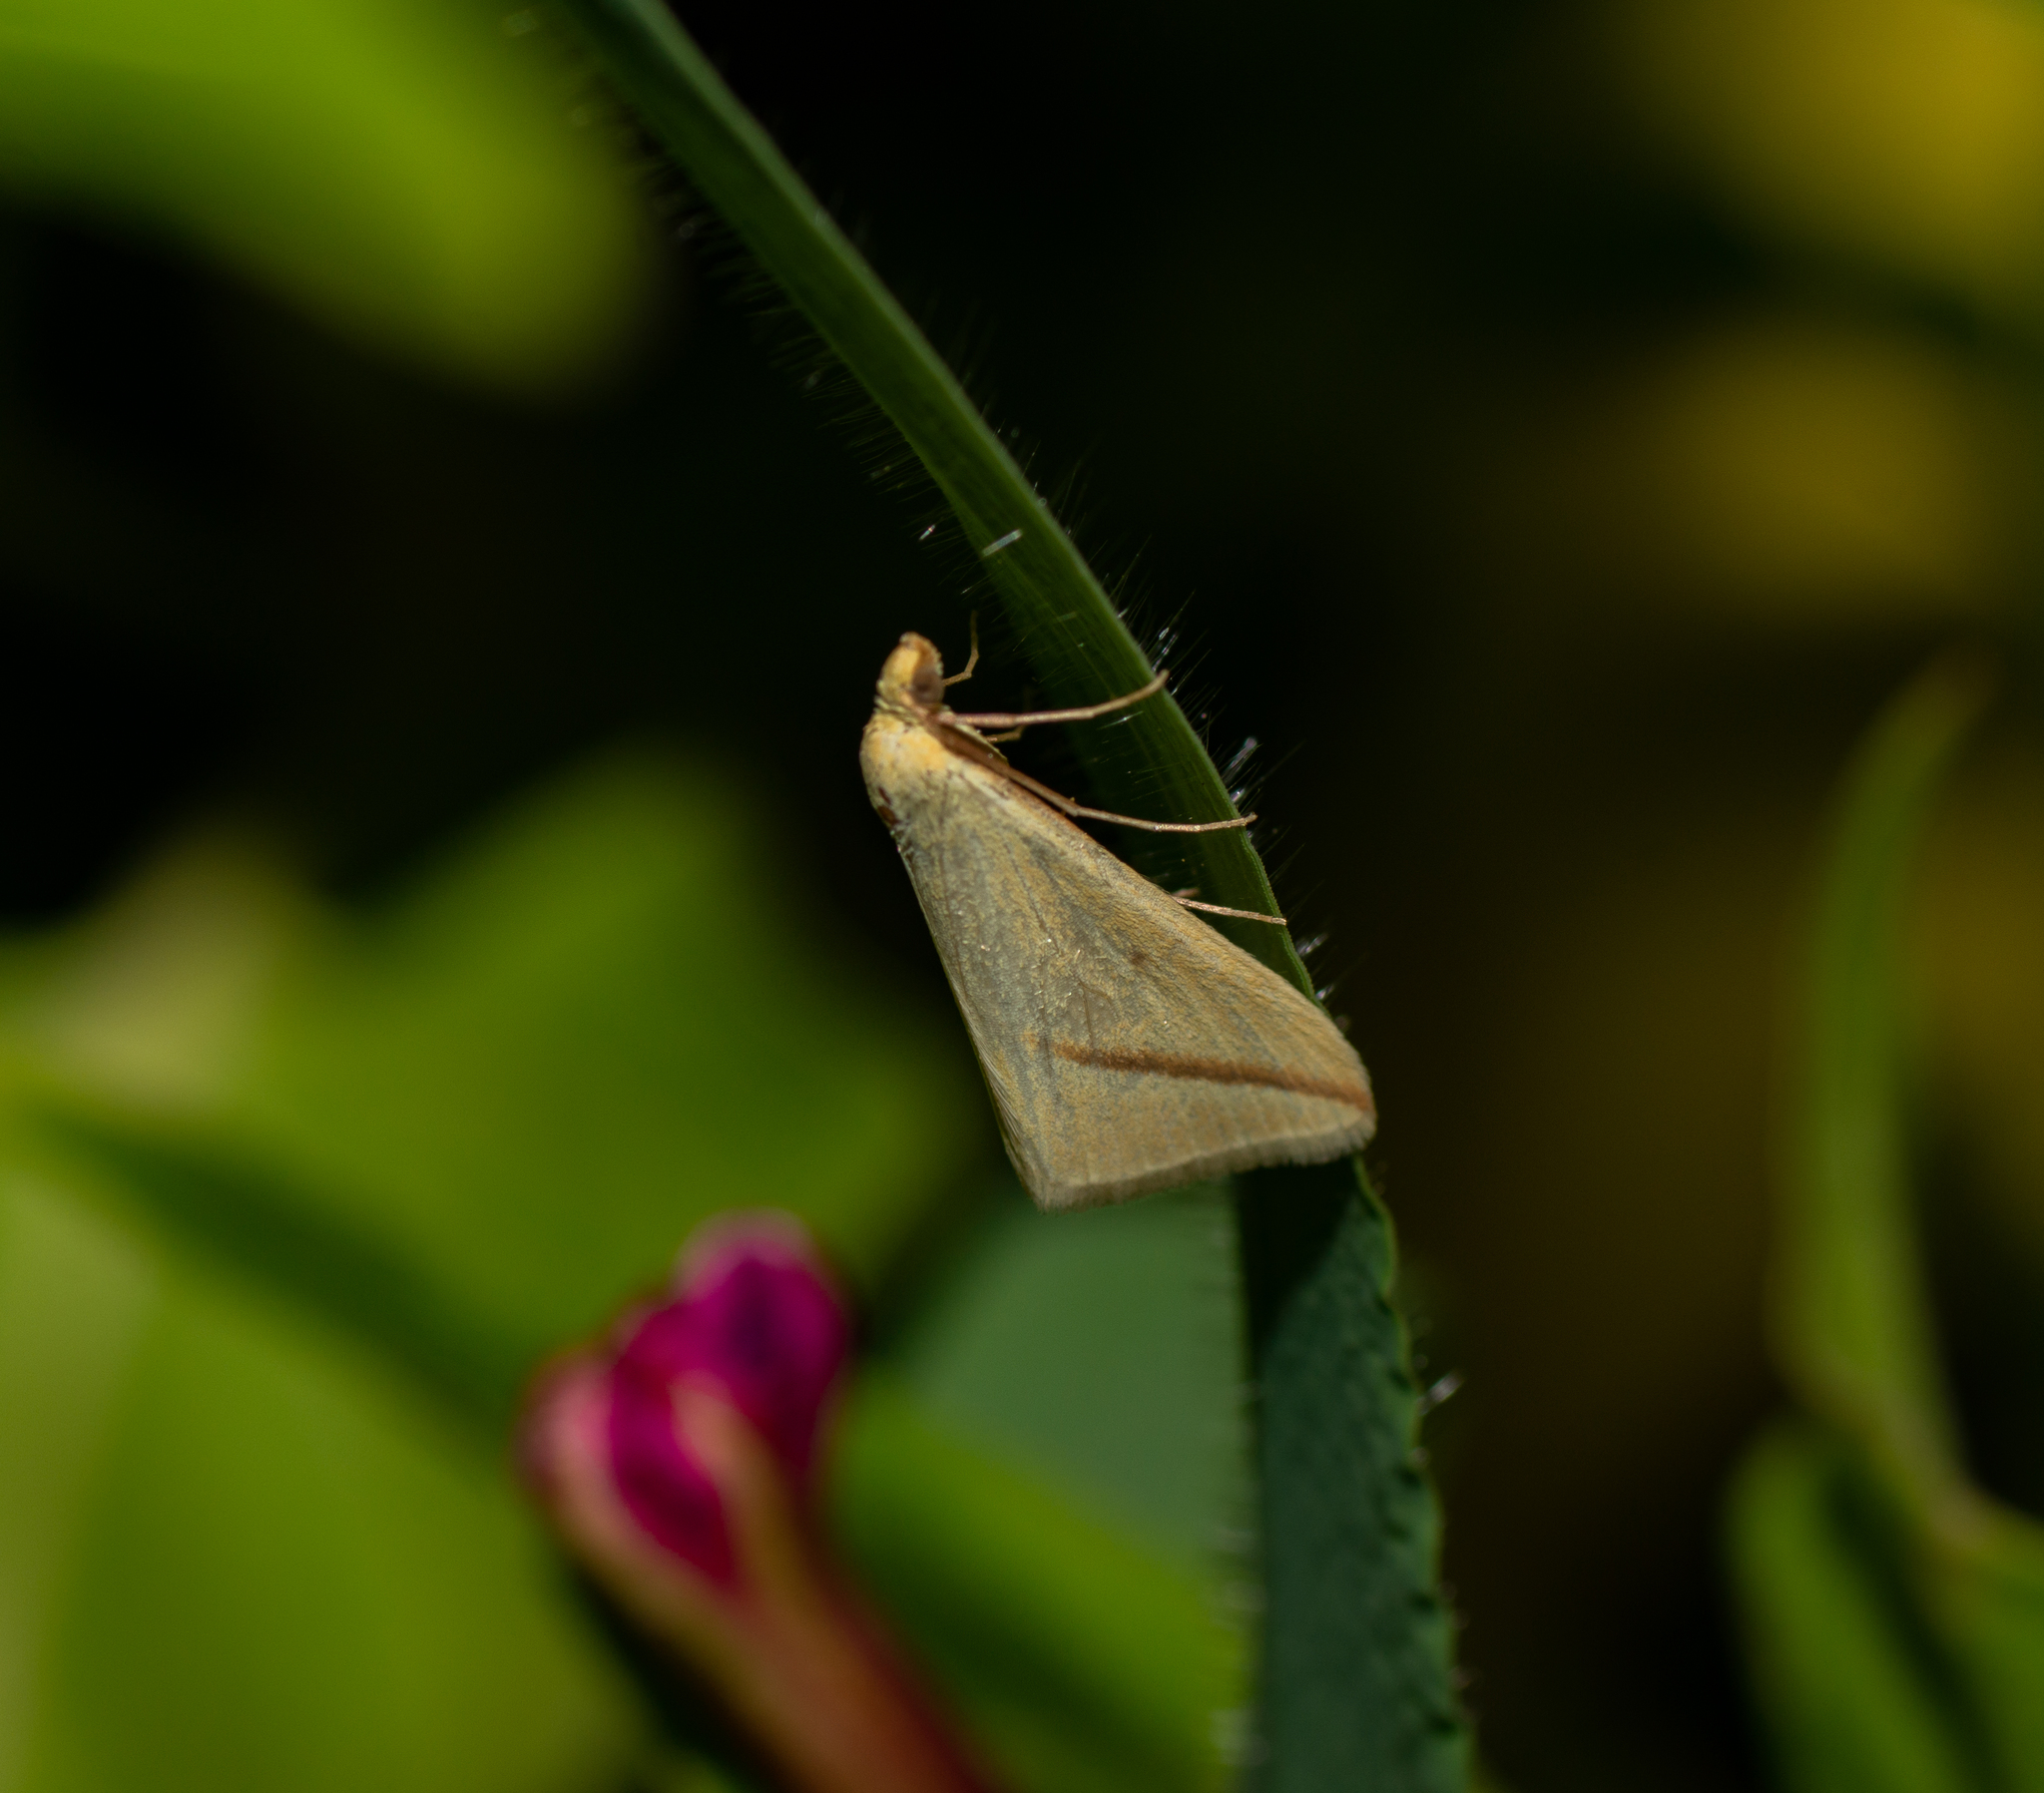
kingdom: Animalia
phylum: Arthropoda
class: Insecta
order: Lepidoptera
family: Geometridae
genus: Rhodometra
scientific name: Rhodometra sacraria
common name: Vestal
